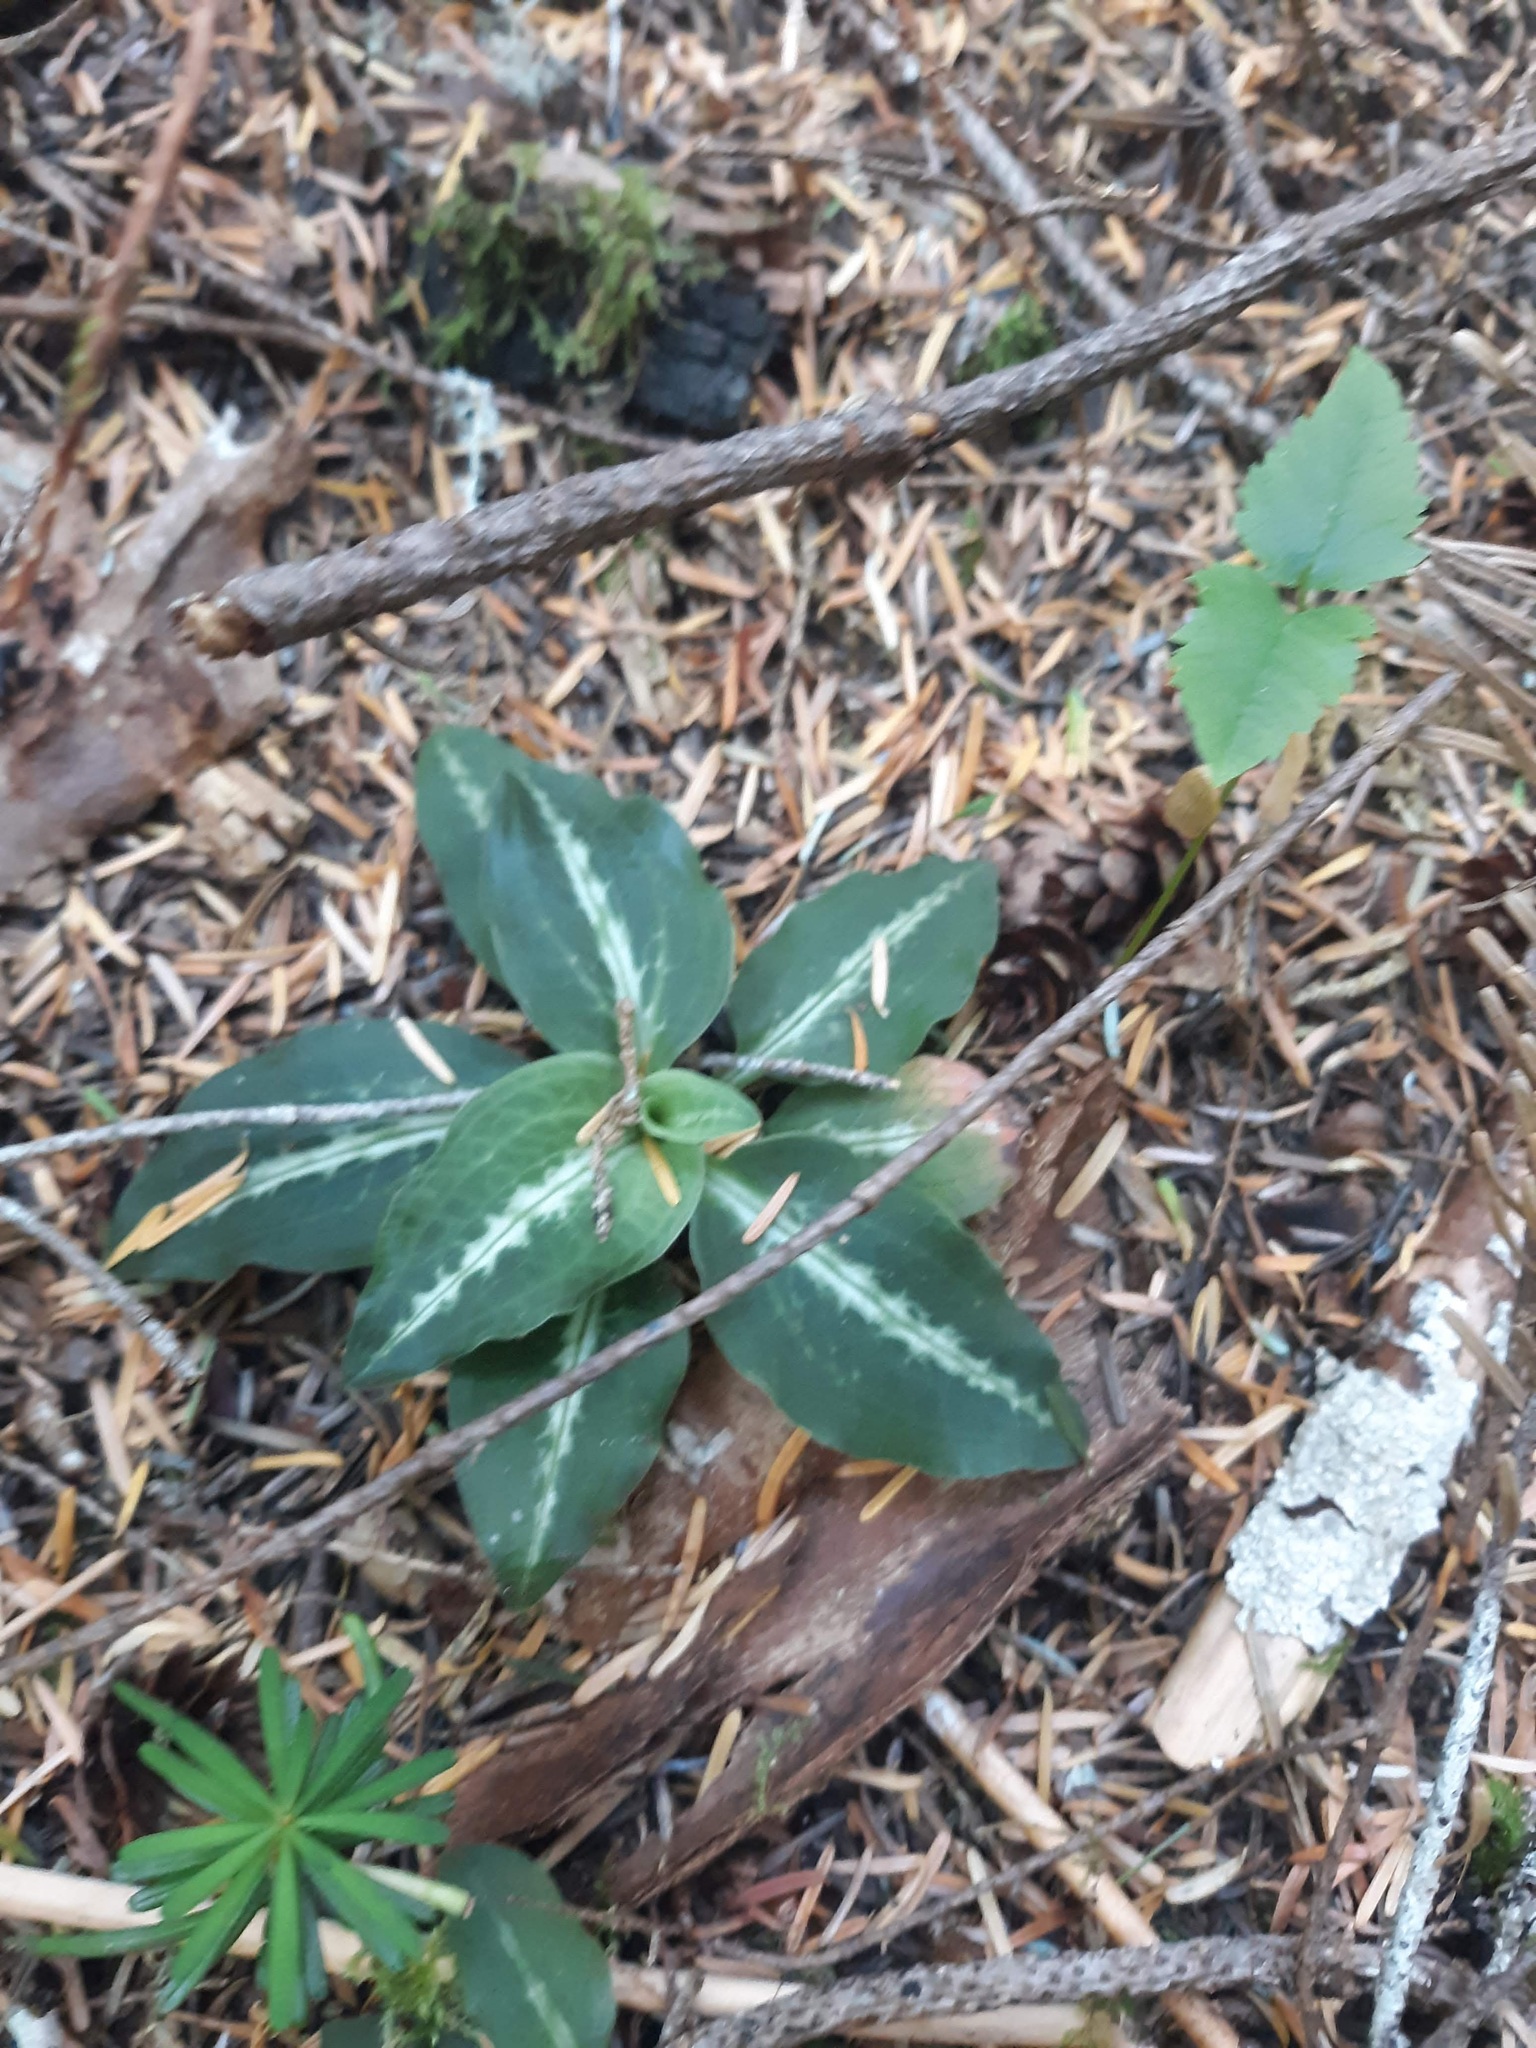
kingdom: Plantae
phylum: Tracheophyta
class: Liliopsida
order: Asparagales
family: Orchidaceae
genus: Goodyera
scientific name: Goodyera oblongifolia
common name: Giant rattlesnake-plantain
